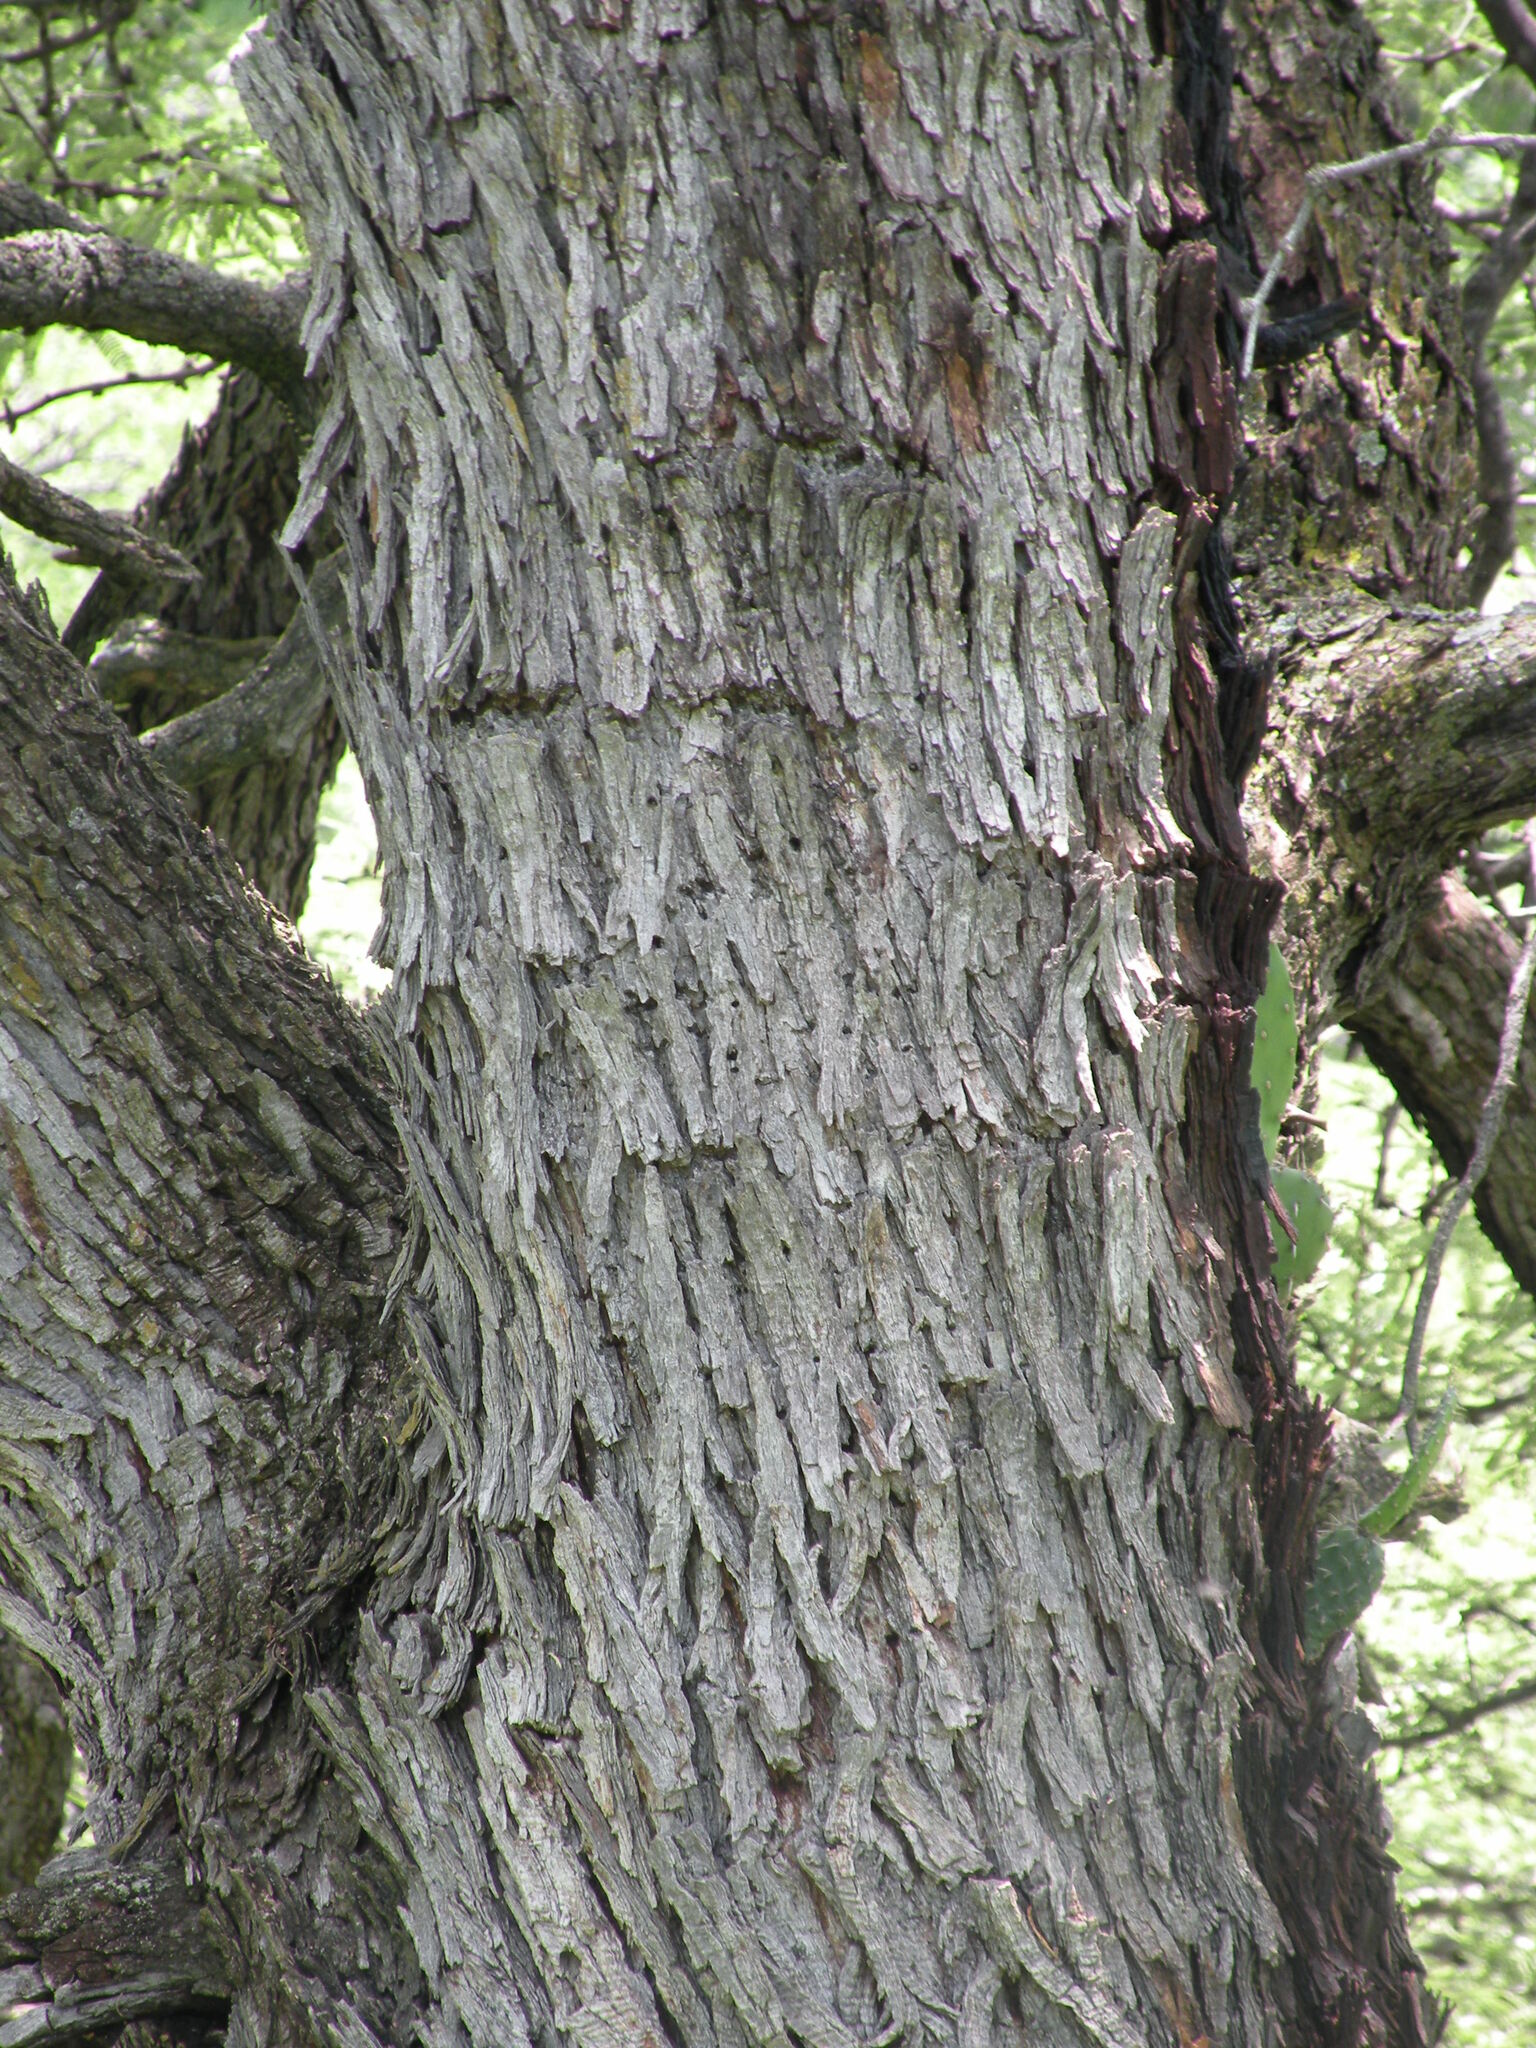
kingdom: Plantae
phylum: Tracheophyta
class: Magnoliopsida
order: Fabales
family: Fabaceae
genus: Prosopis
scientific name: Prosopis velutina
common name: Velvet mesquite
